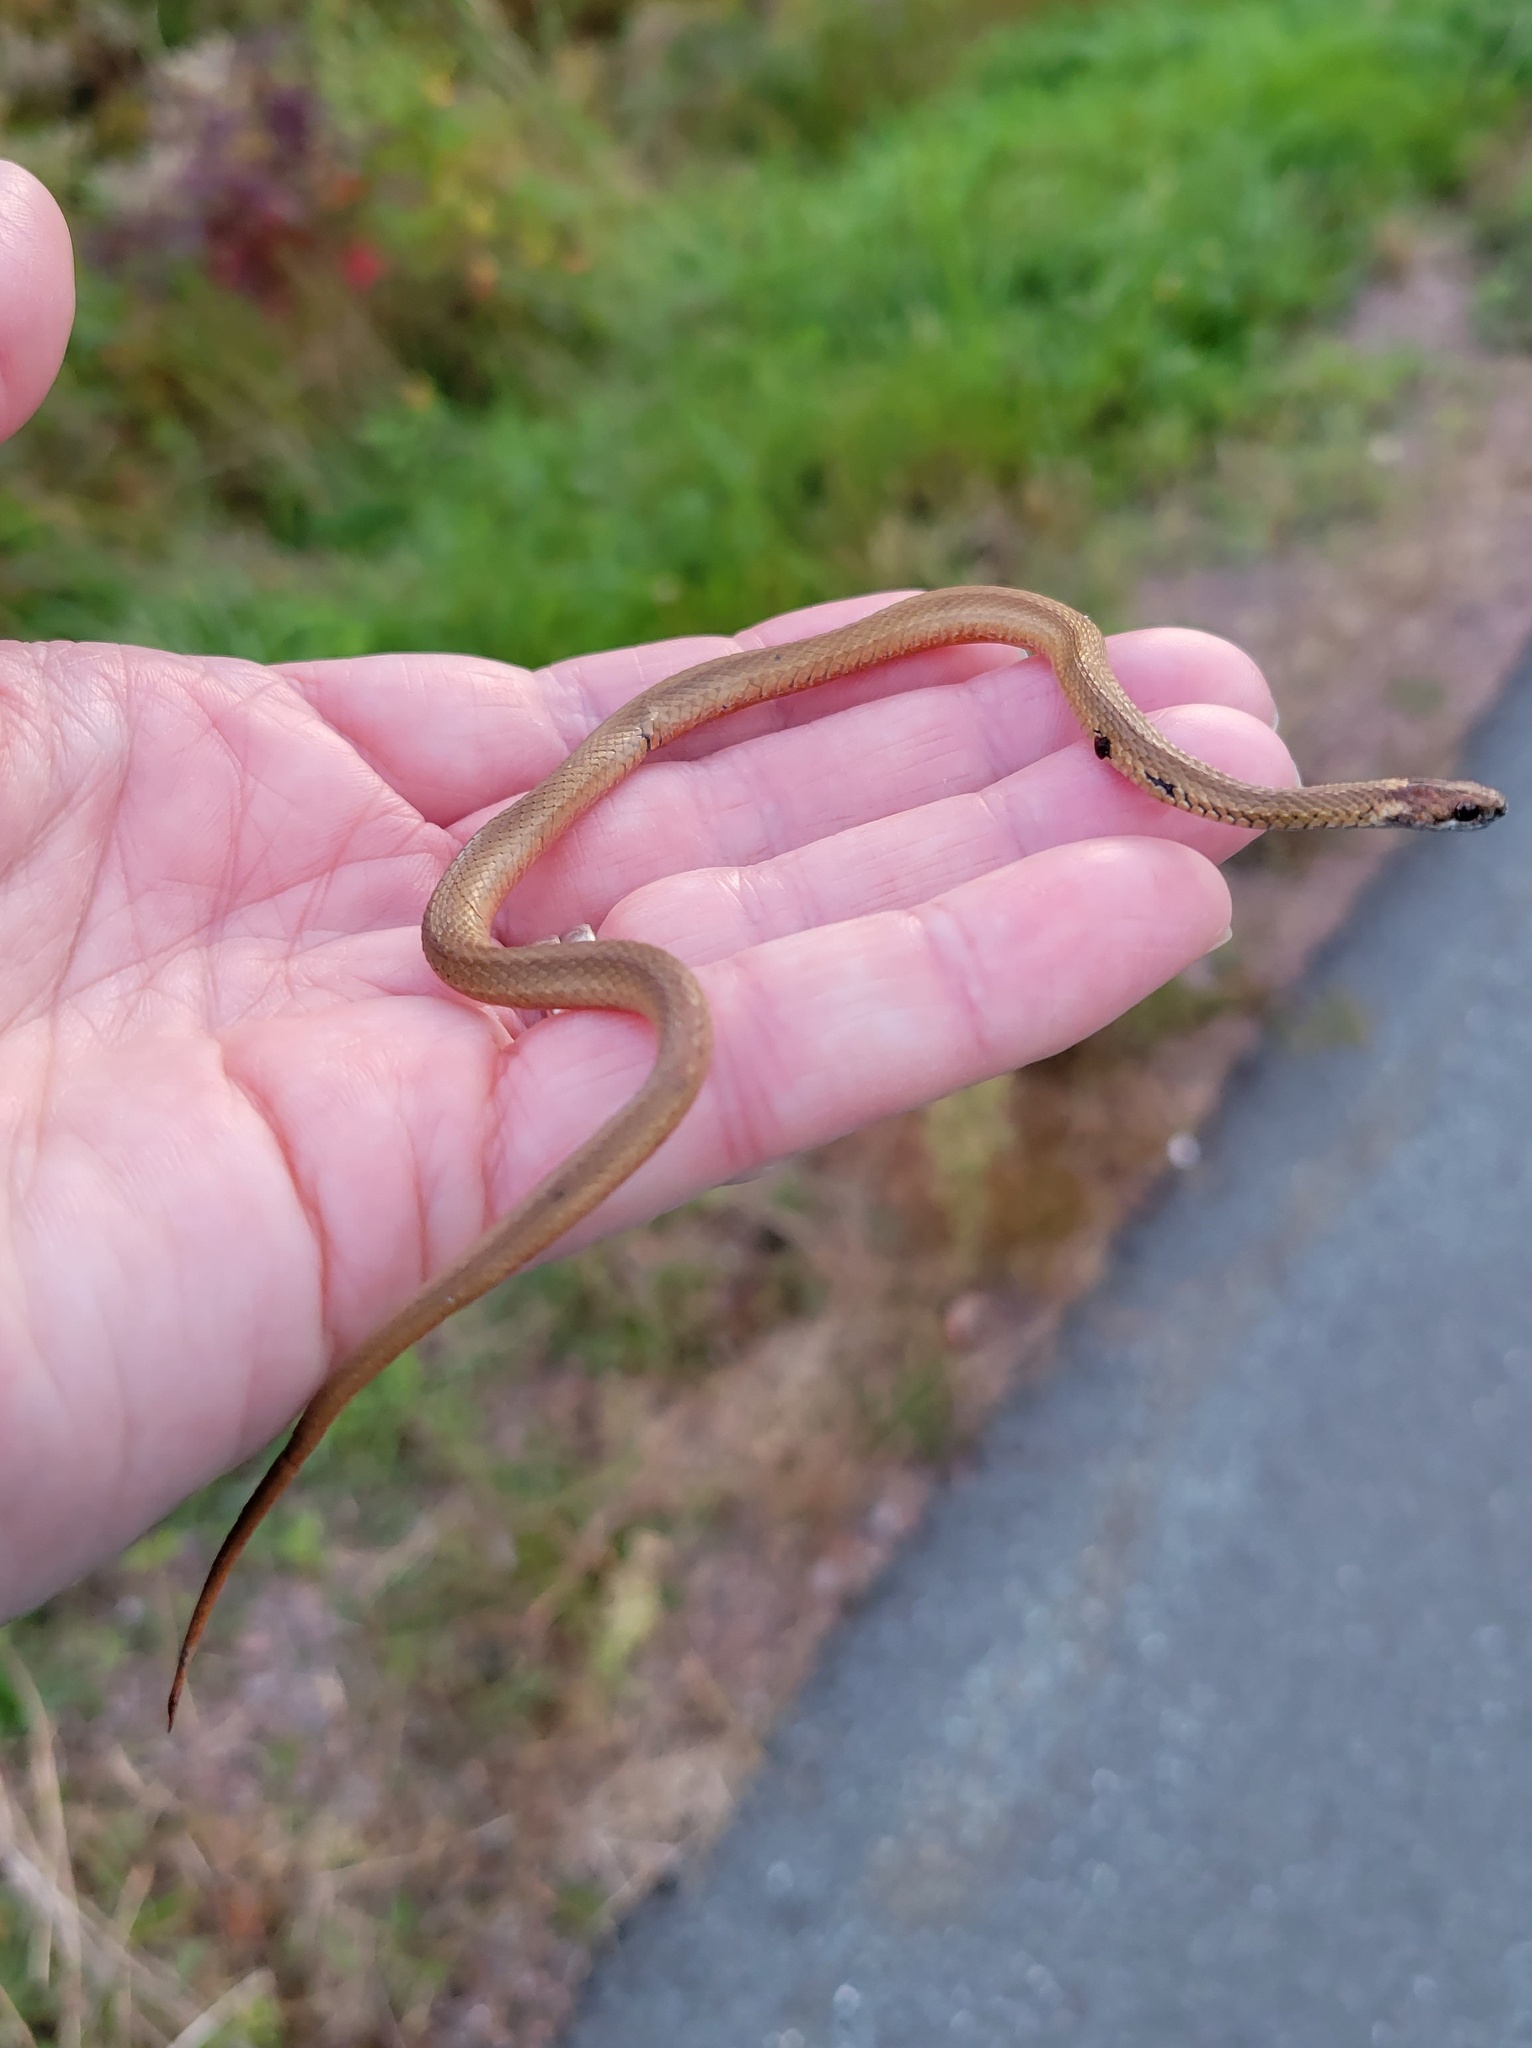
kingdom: Animalia
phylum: Chordata
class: Squamata
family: Colubridae
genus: Storeria
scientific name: Storeria occipitomaculata
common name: Redbelly snake
